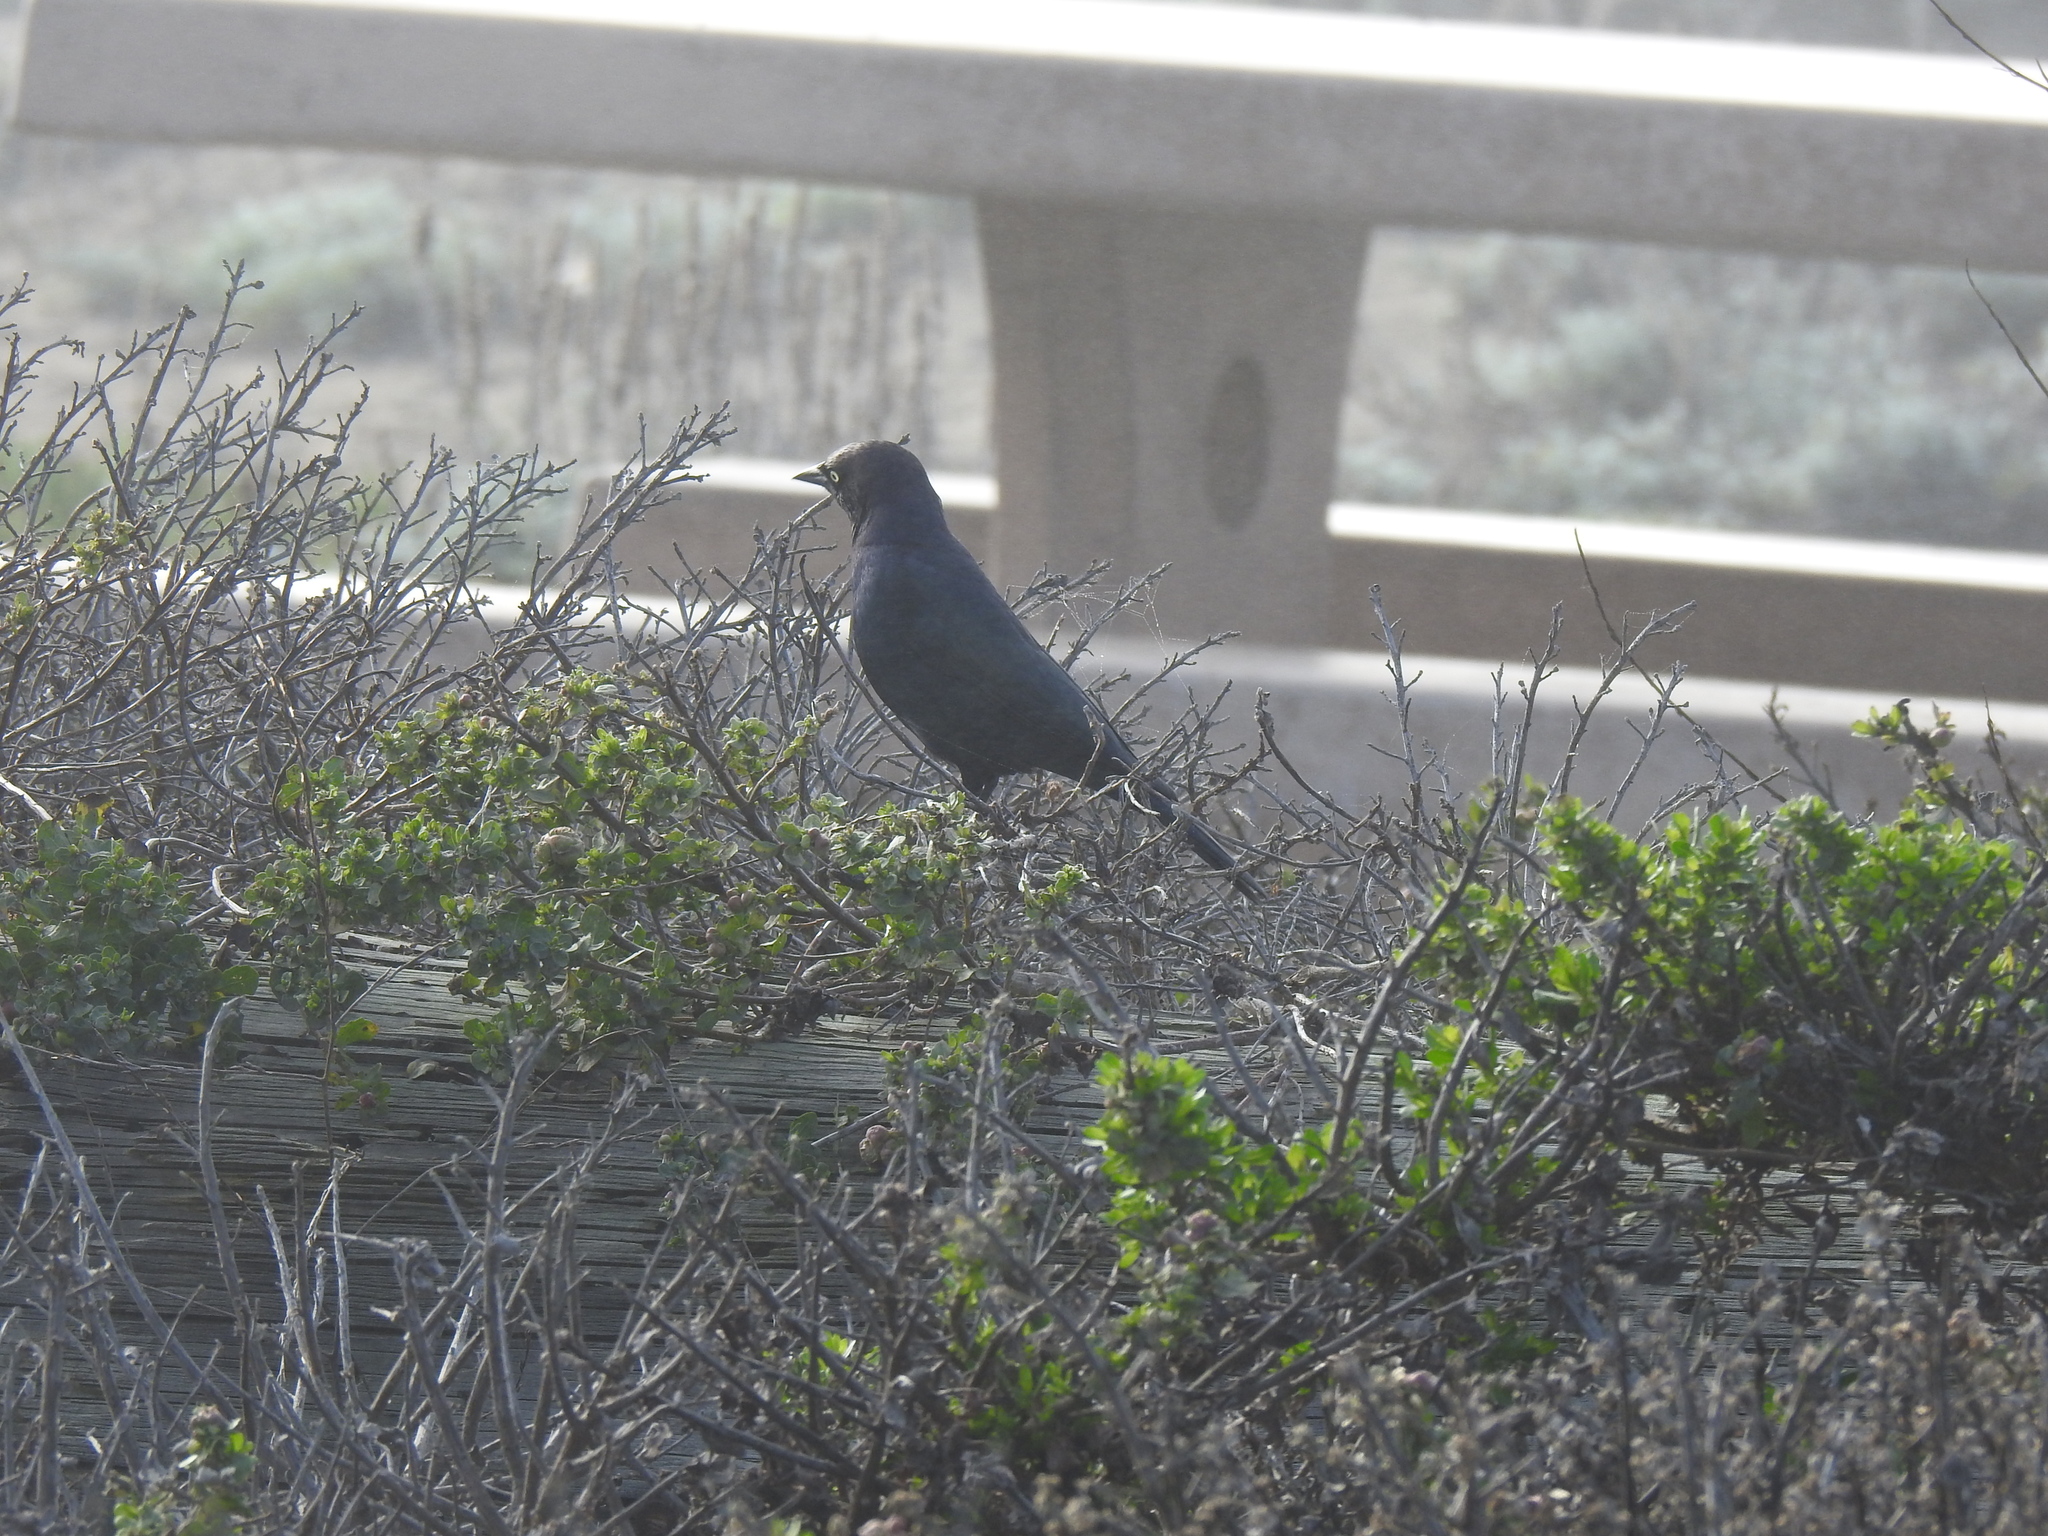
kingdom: Animalia
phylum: Chordata
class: Aves
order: Passeriformes
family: Icteridae
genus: Euphagus
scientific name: Euphagus cyanocephalus
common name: Brewer's blackbird
